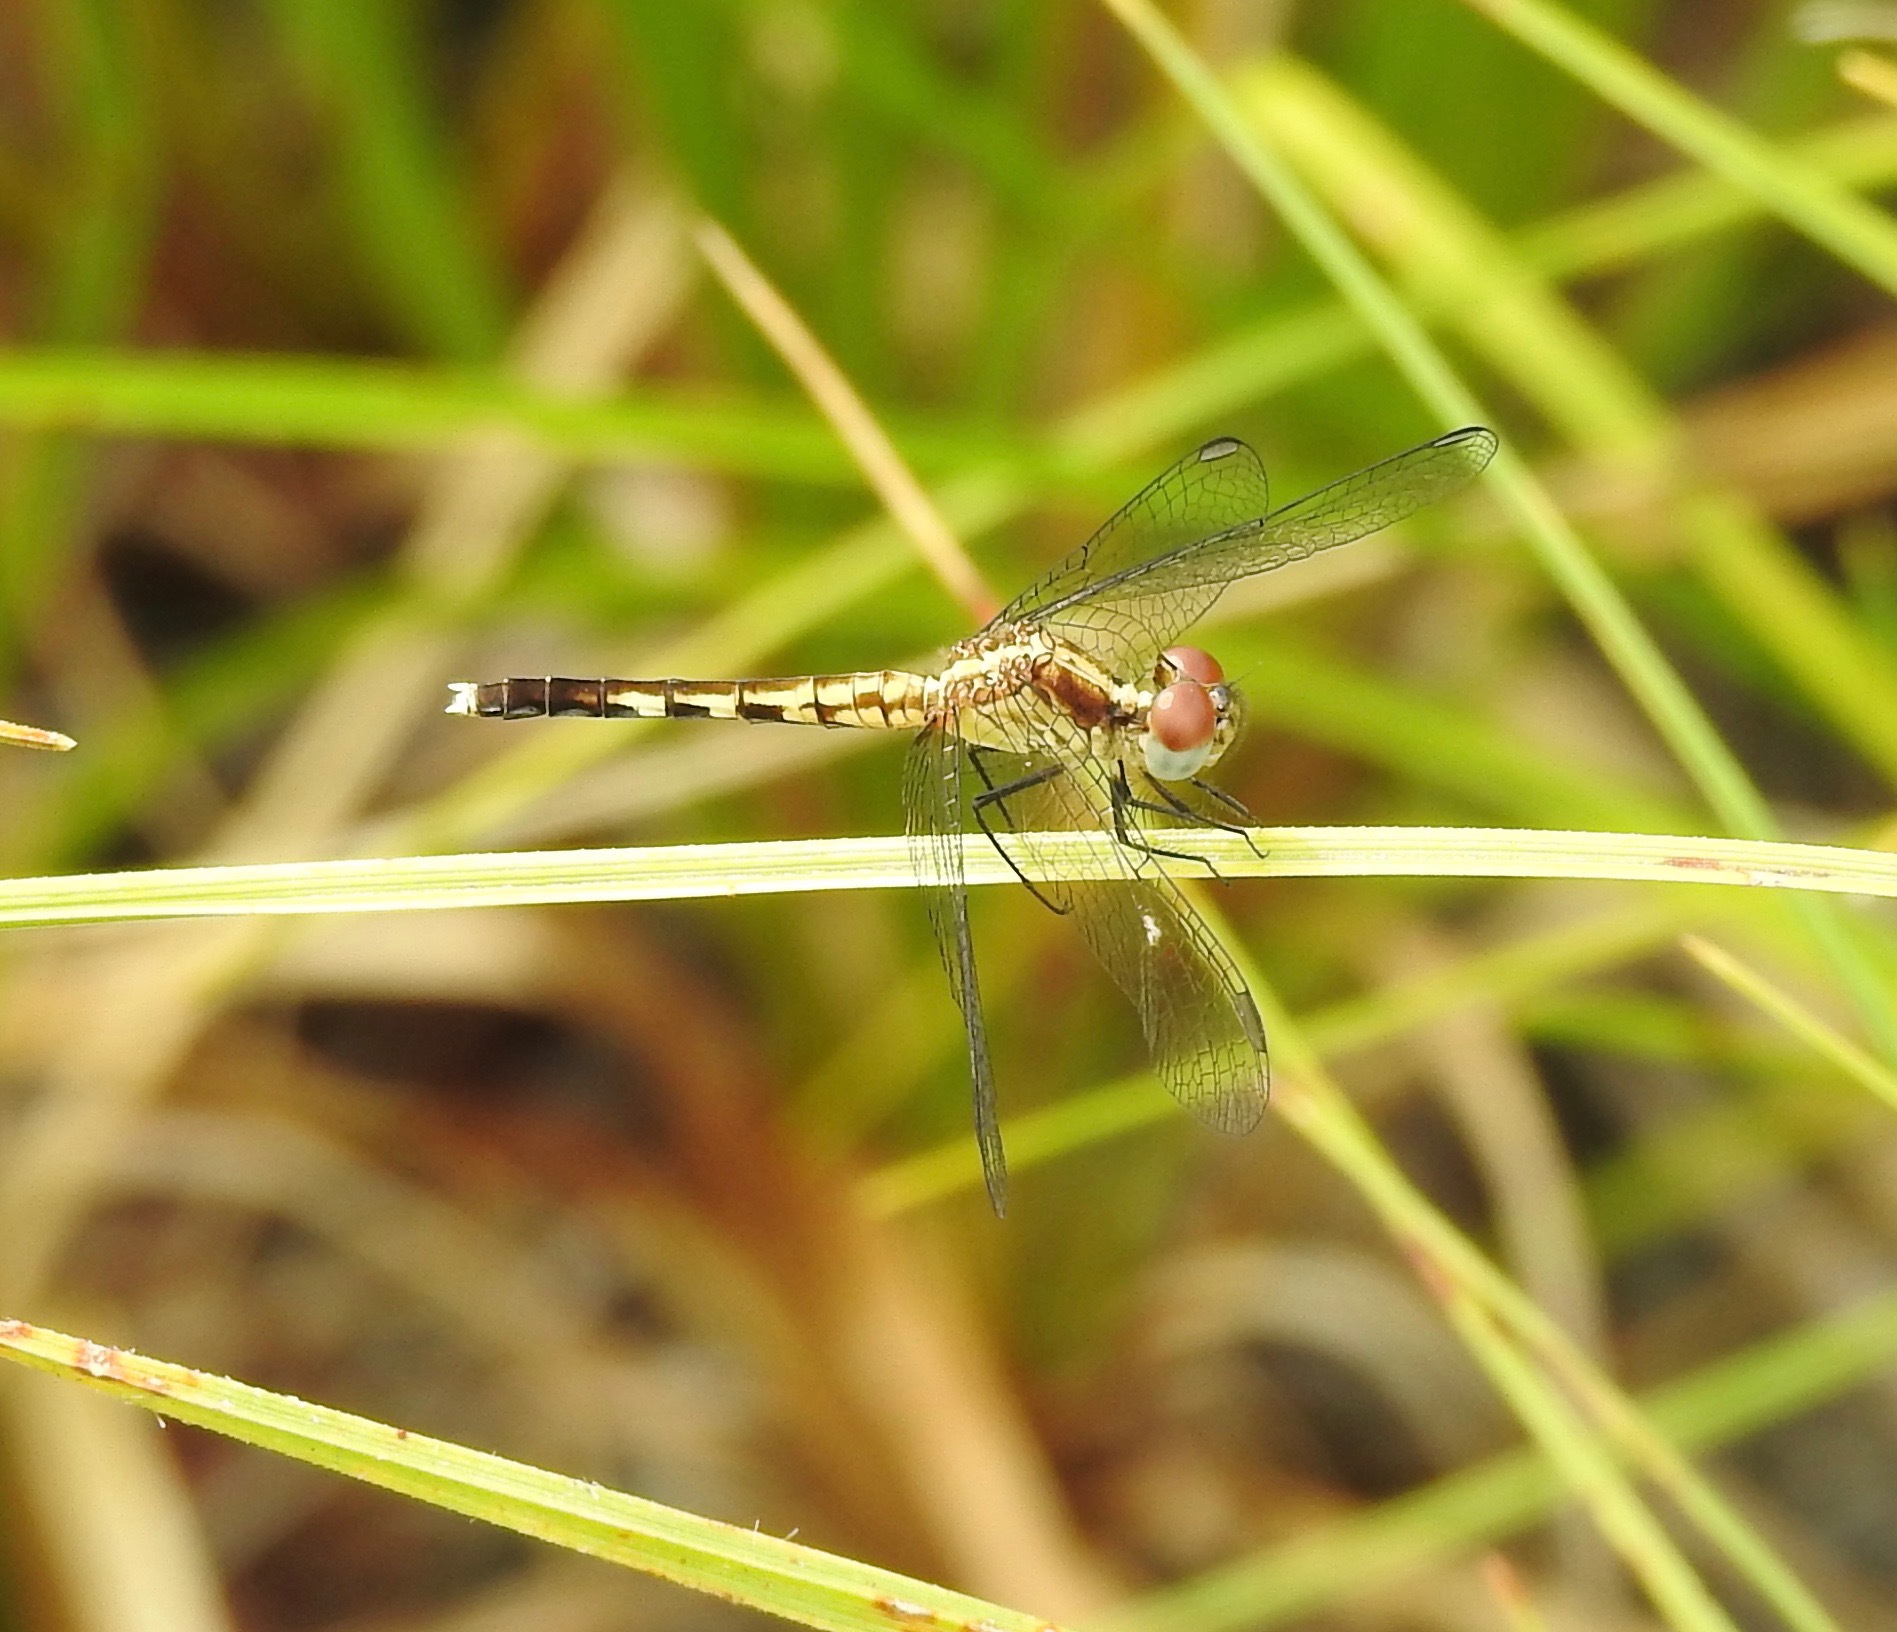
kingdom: Animalia
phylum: Arthropoda
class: Insecta
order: Odonata
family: Libellulidae
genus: Erythrodiplax
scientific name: Erythrodiplax minuscula
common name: Little blue dragonlet
